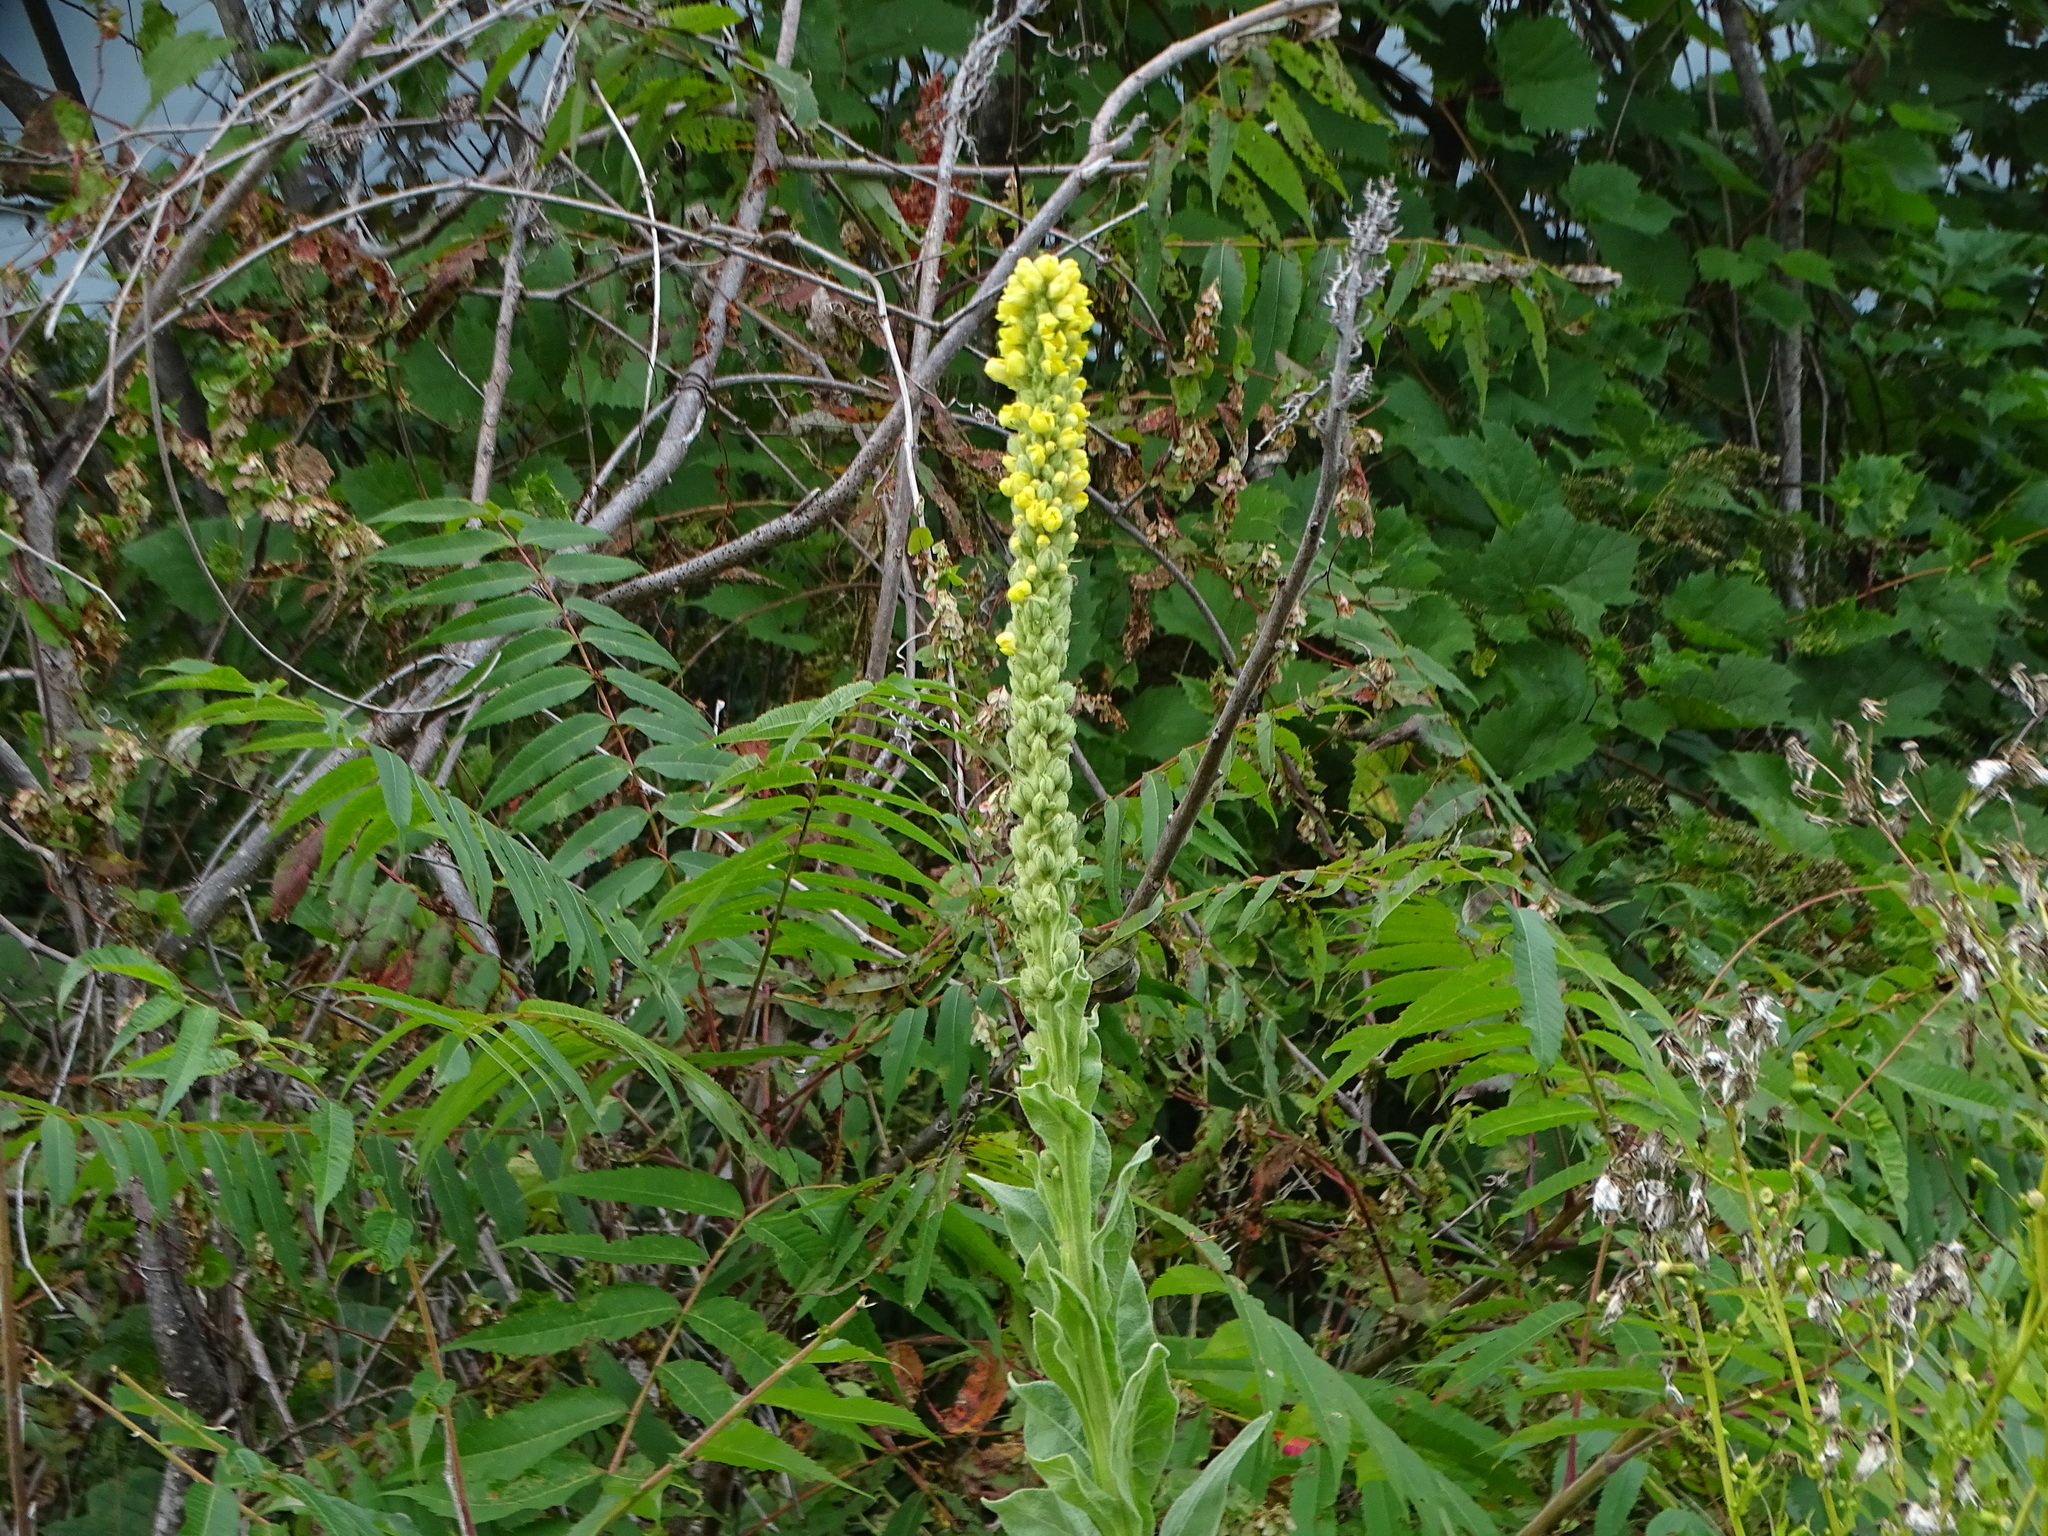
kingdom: Plantae
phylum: Tracheophyta
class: Magnoliopsida
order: Lamiales
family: Scrophulariaceae
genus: Verbascum
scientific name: Verbascum thapsus
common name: Common mullein
